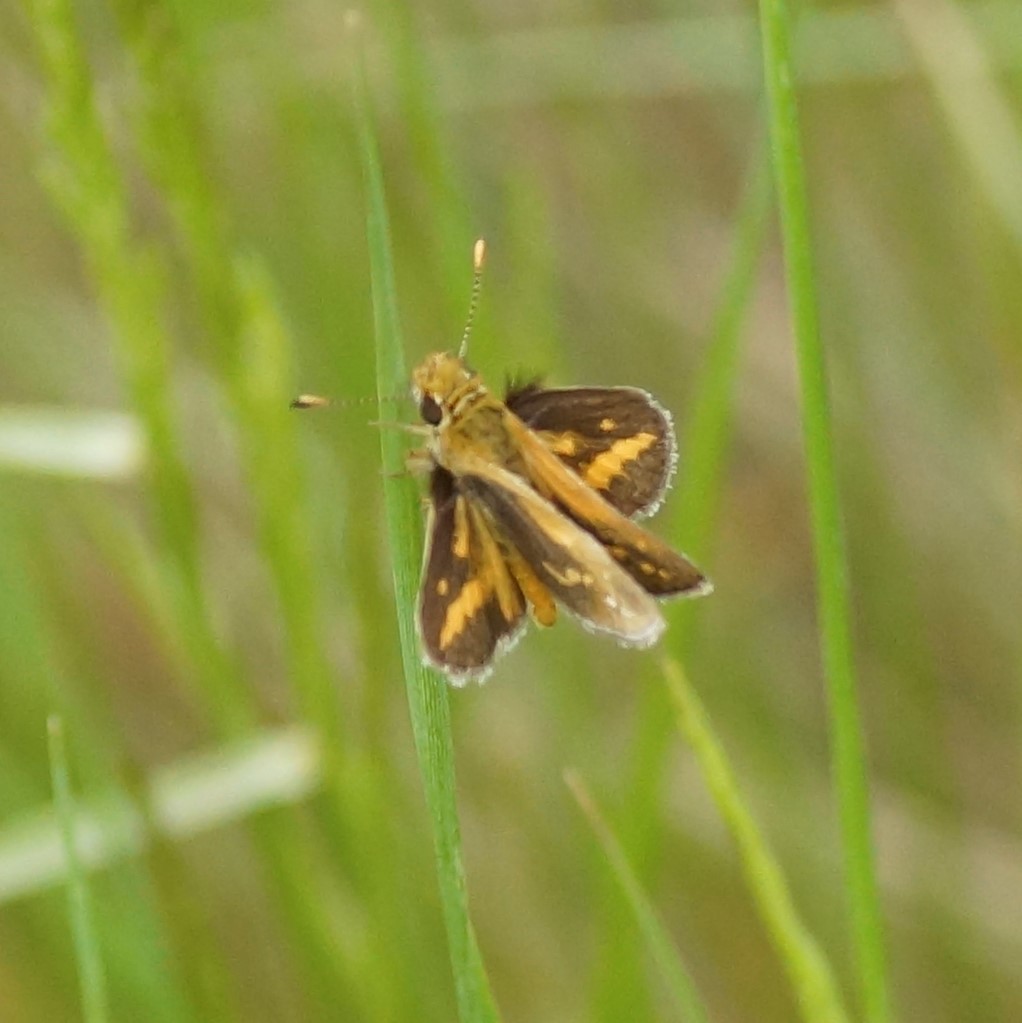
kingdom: Animalia
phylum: Arthropoda
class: Insecta
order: Lepidoptera
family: Hesperiidae
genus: Taractrocera
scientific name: Taractrocera papyria
